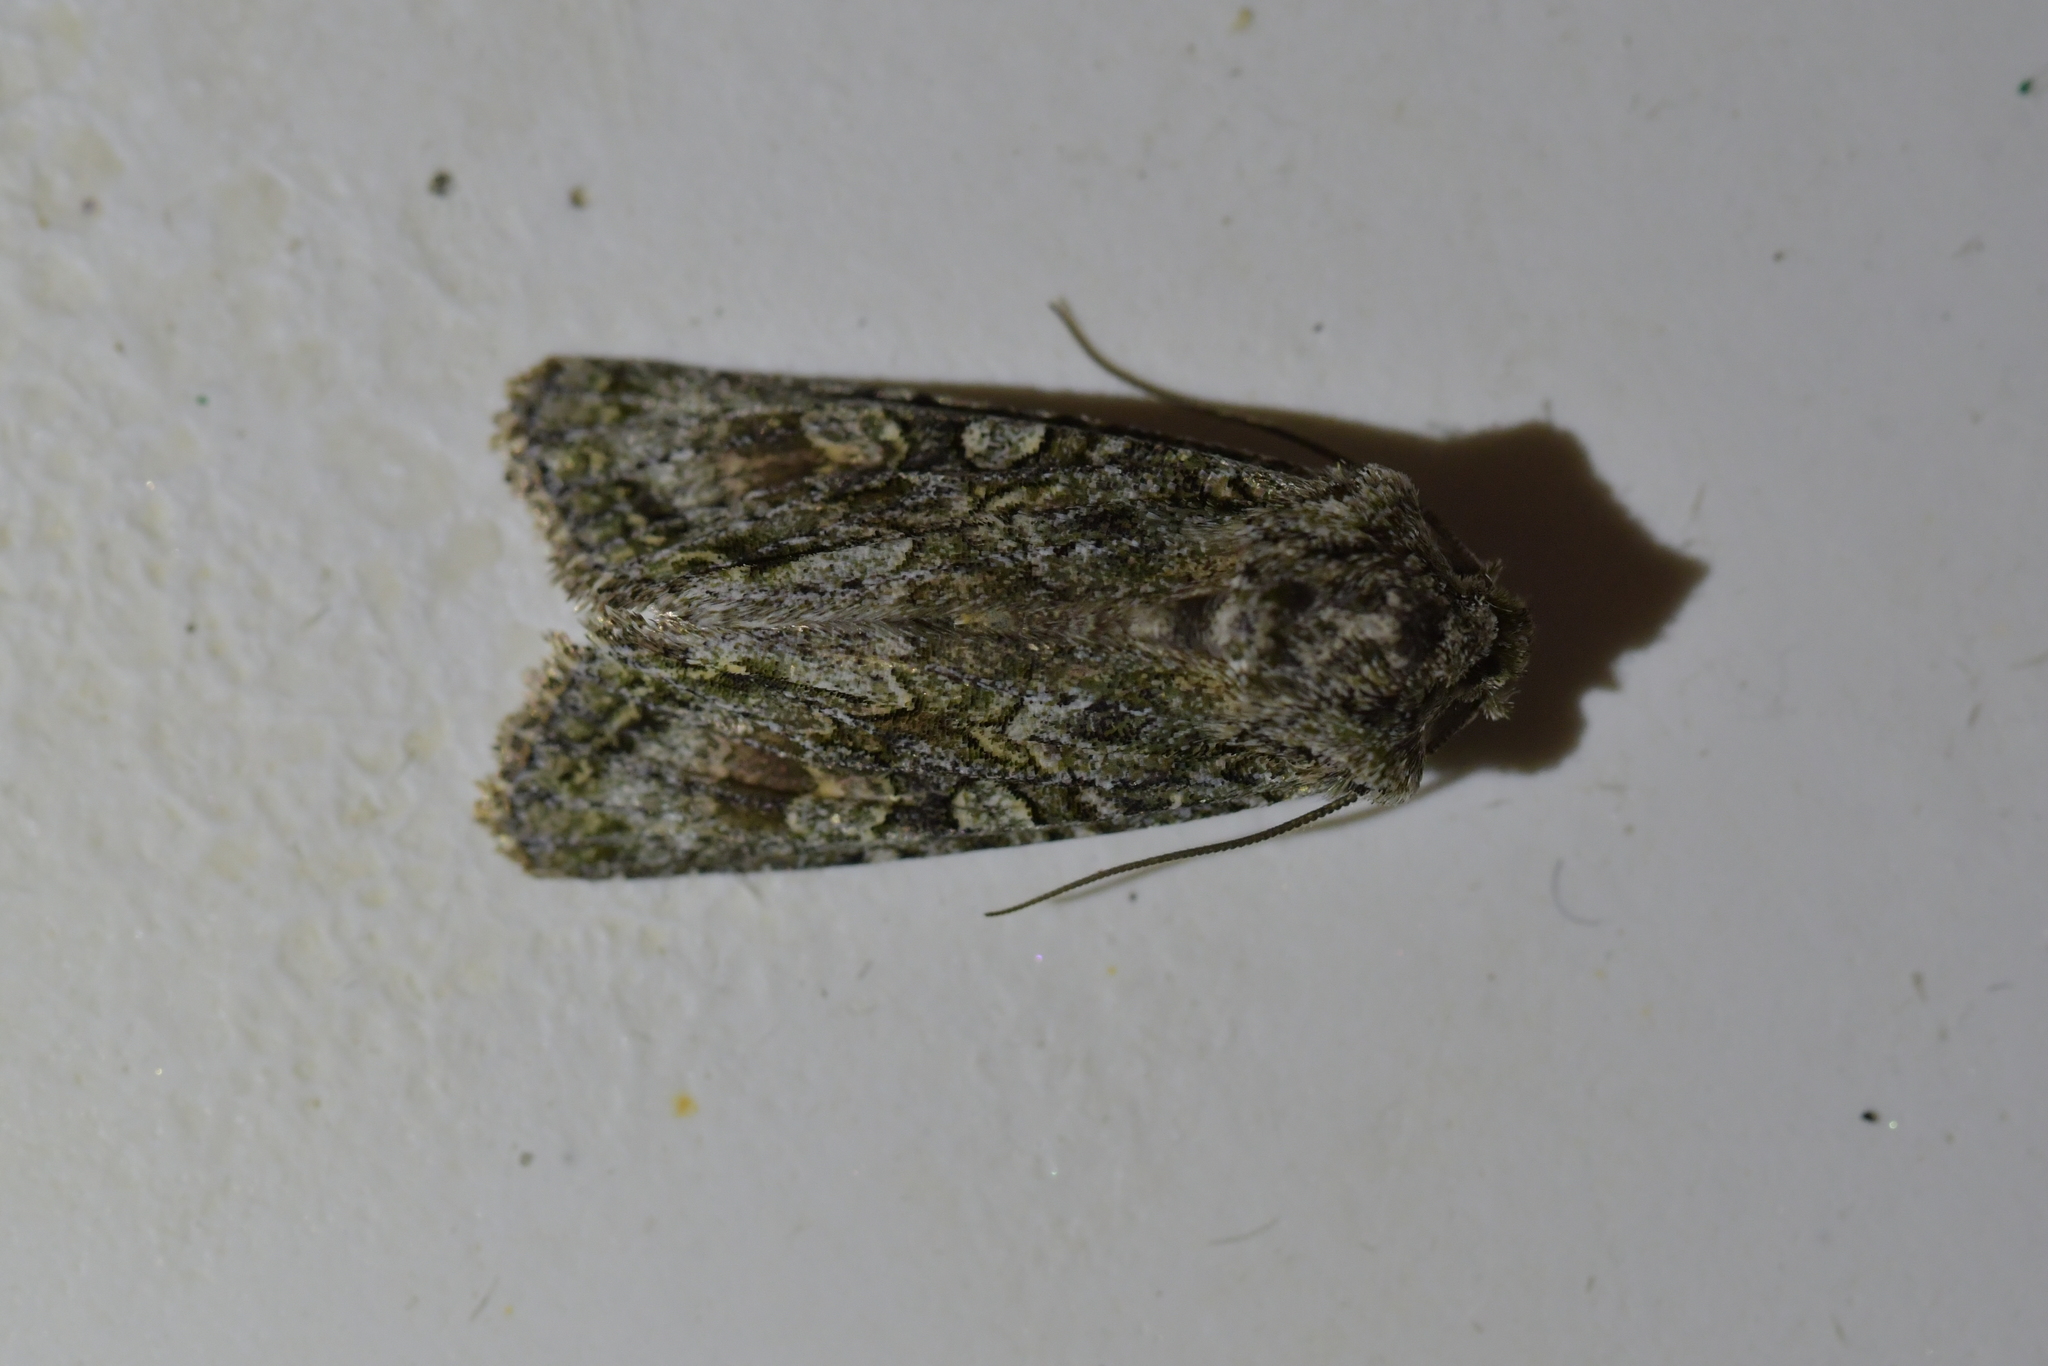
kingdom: Animalia
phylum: Arthropoda
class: Insecta
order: Lepidoptera
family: Noctuidae
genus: Ichneutica
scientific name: Ichneutica mutans
